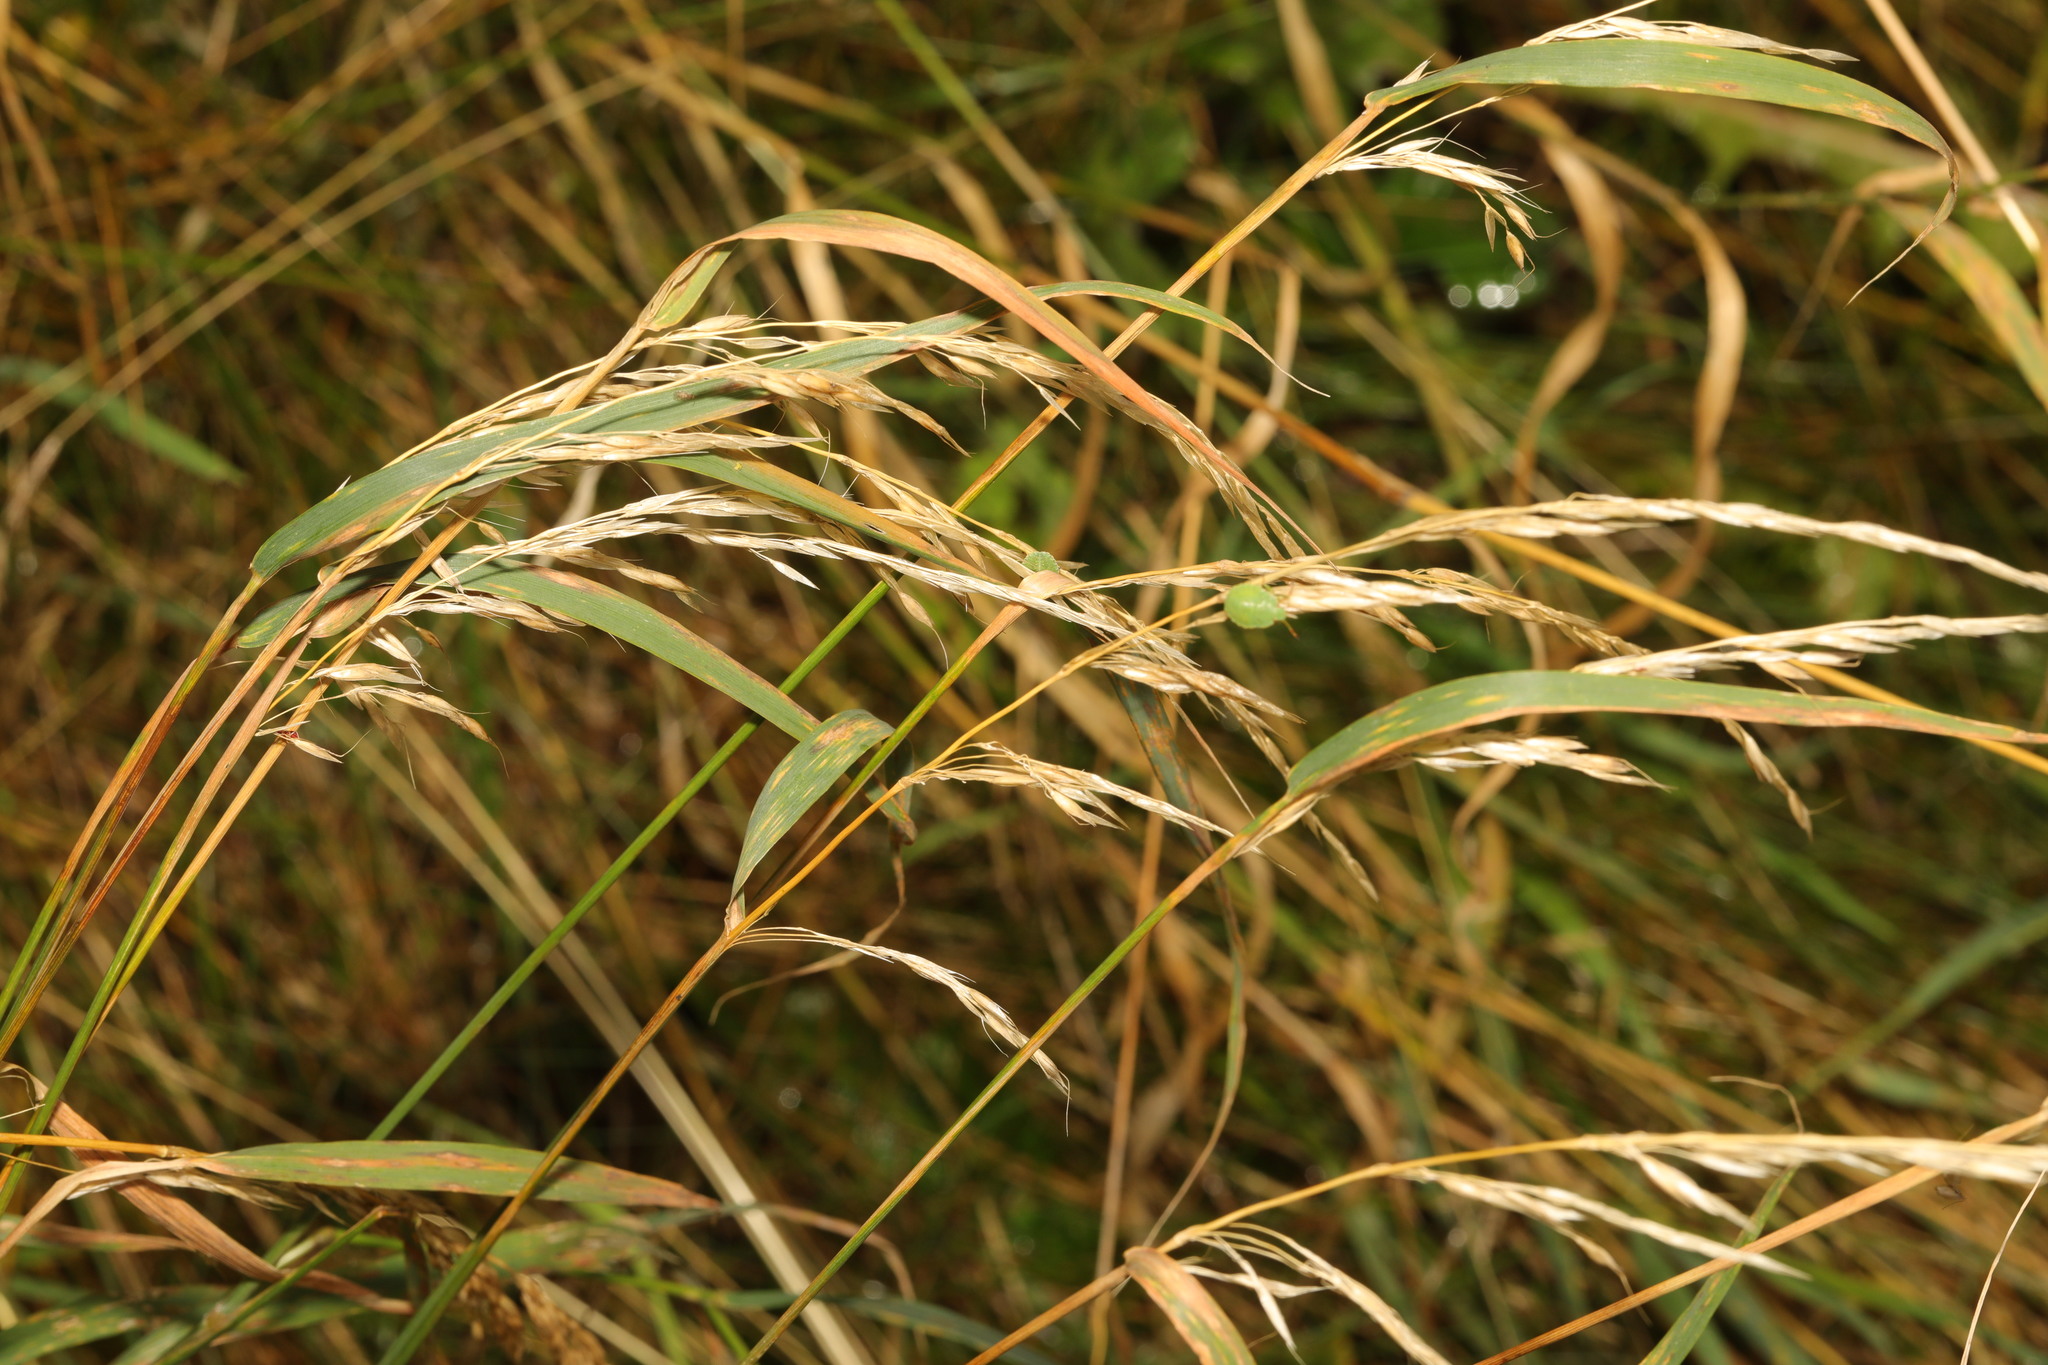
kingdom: Plantae
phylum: Tracheophyta
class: Liliopsida
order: Poales
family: Poaceae
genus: Arrhenatherum
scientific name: Arrhenatherum elatius
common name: Tall oatgrass
